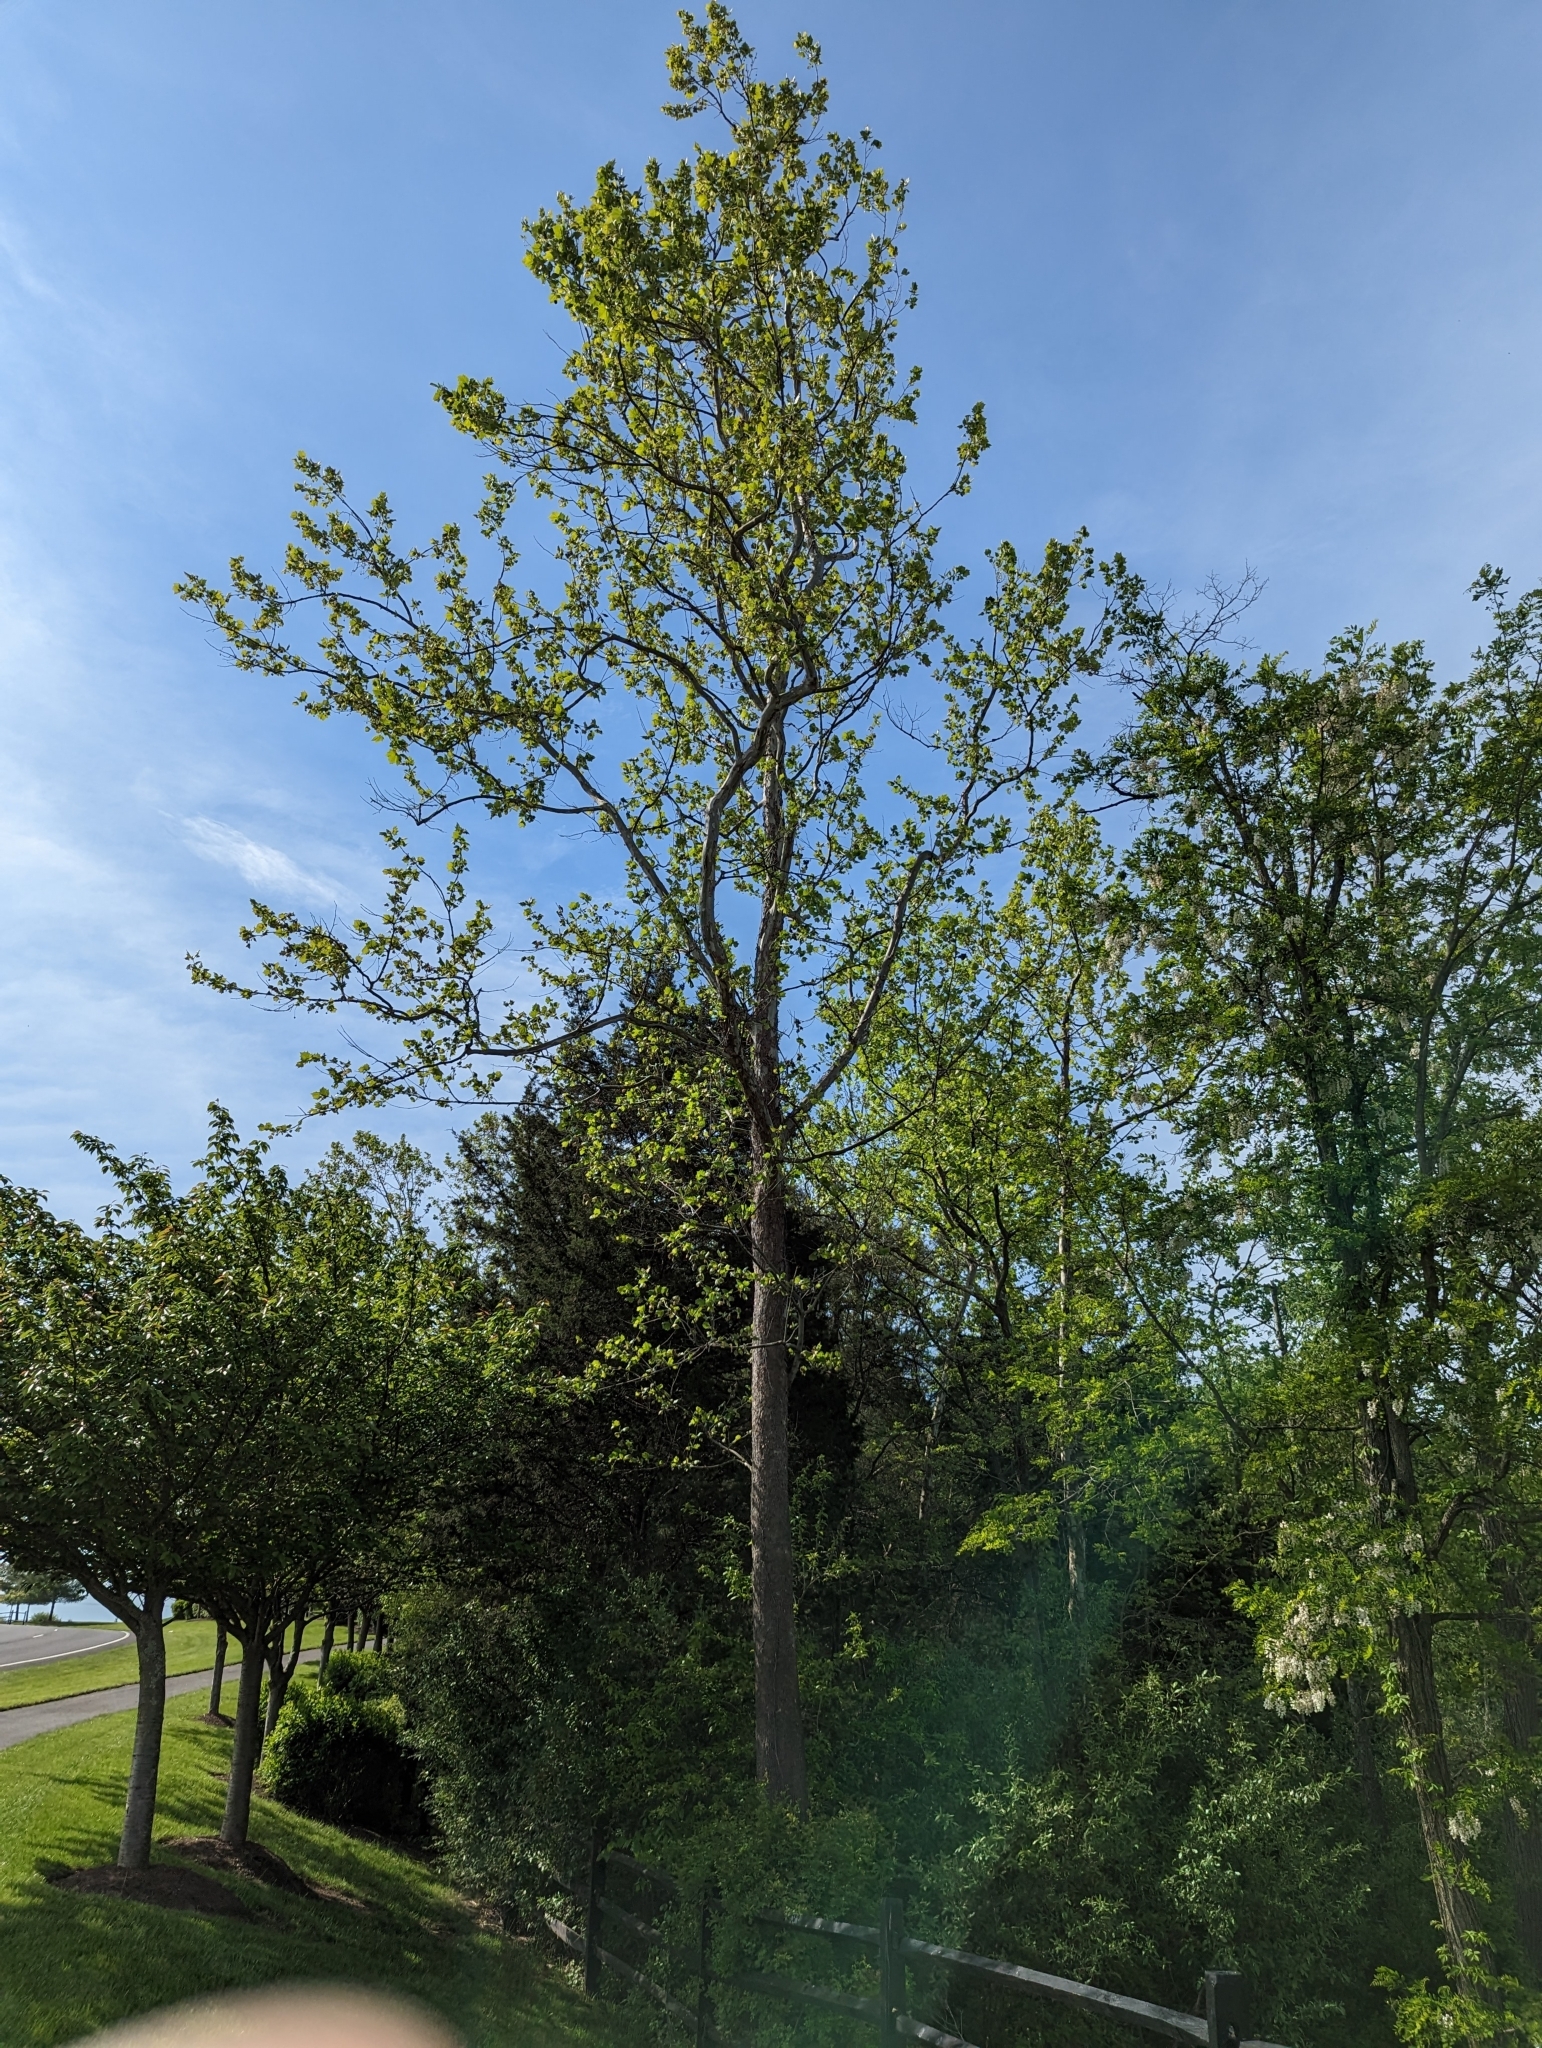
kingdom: Plantae
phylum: Tracheophyta
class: Magnoliopsida
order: Proteales
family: Platanaceae
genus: Platanus
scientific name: Platanus occidentalis
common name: American sycamore
